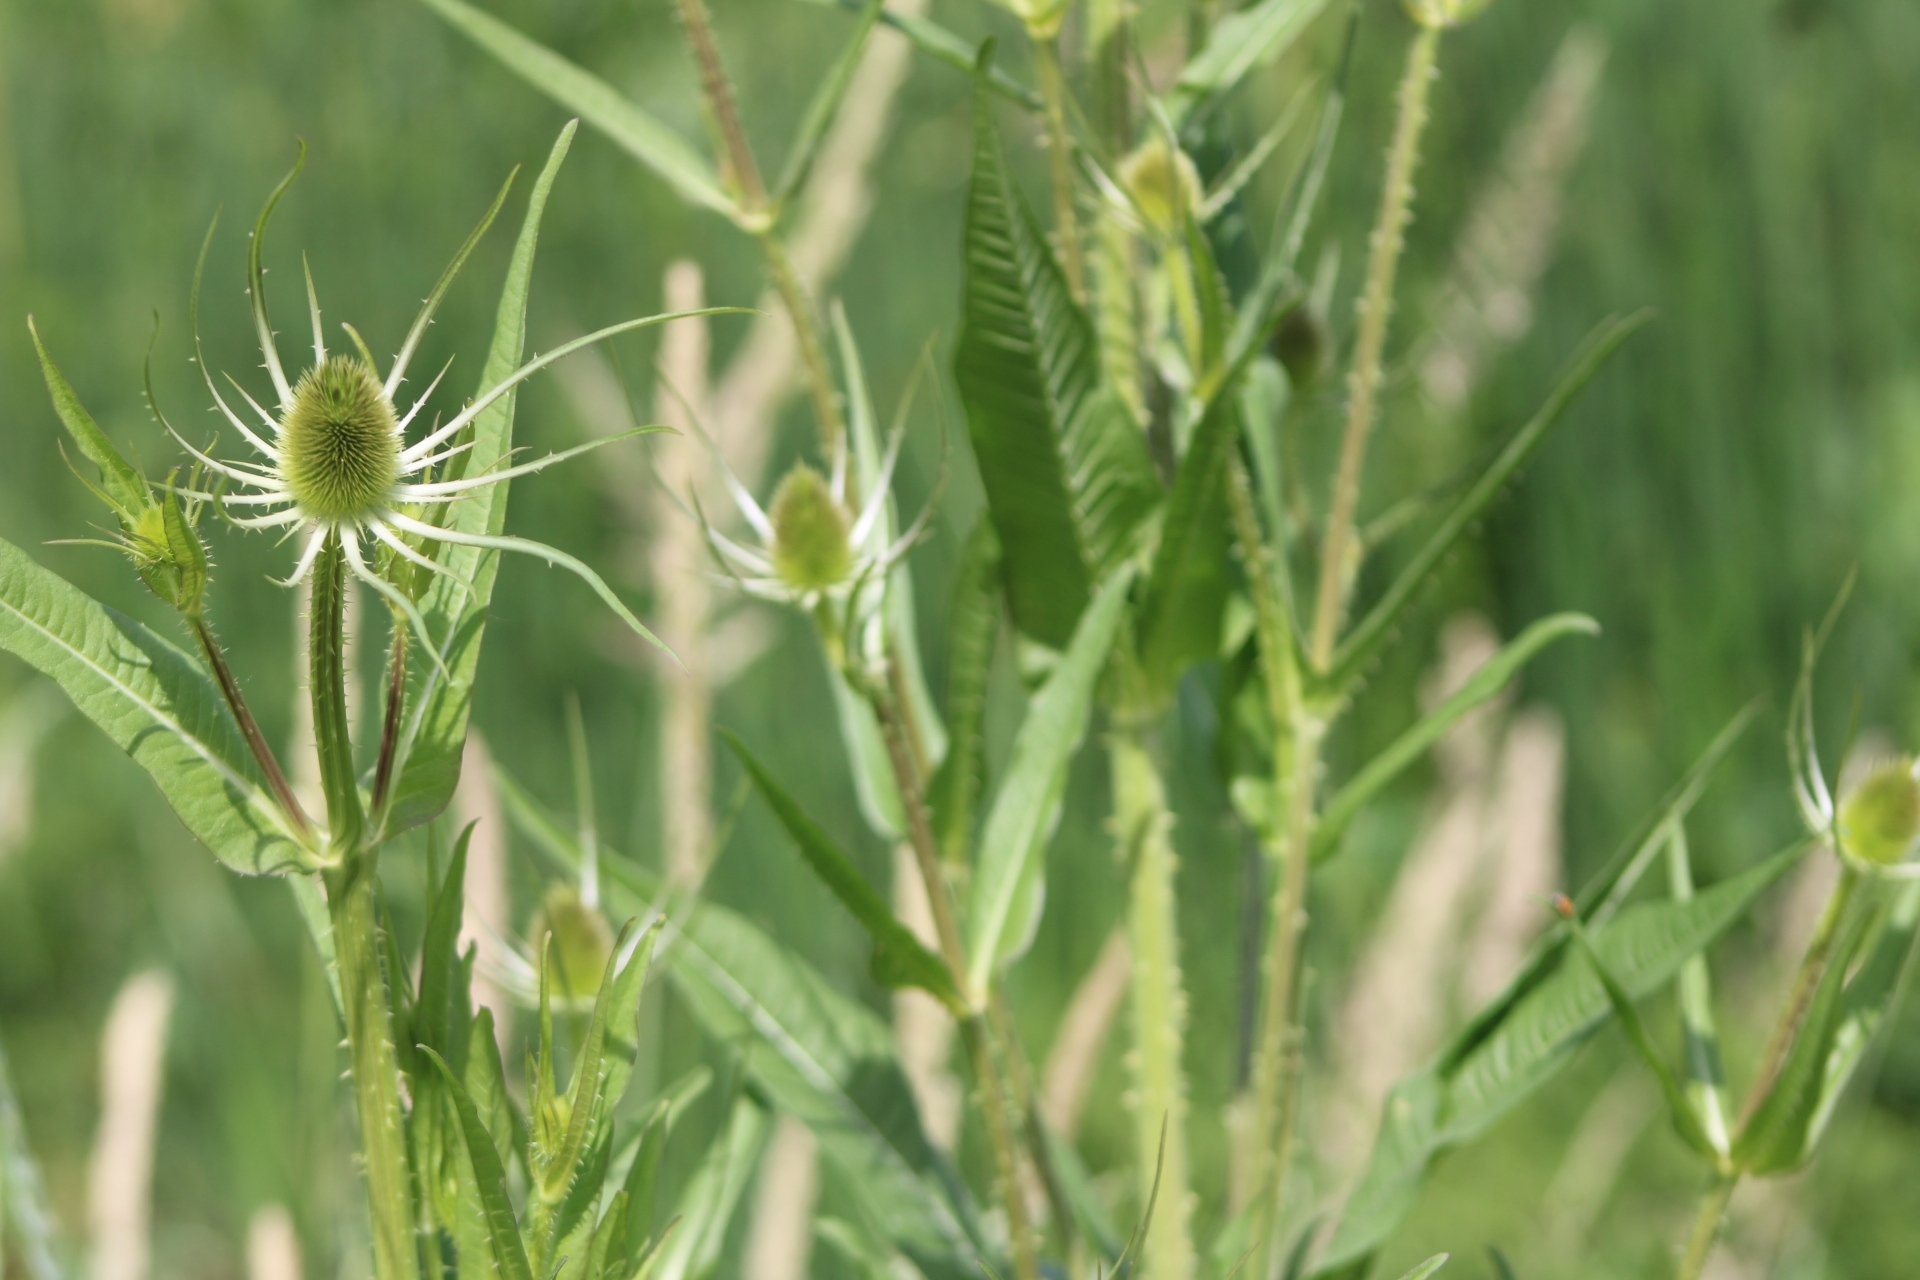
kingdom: Plantae
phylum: Tracheophyta
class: Magnoliopsida
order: Dipsacales
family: Caprifoliaceae
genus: Dipsacus
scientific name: Dipsacus fullonum
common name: Teasel
